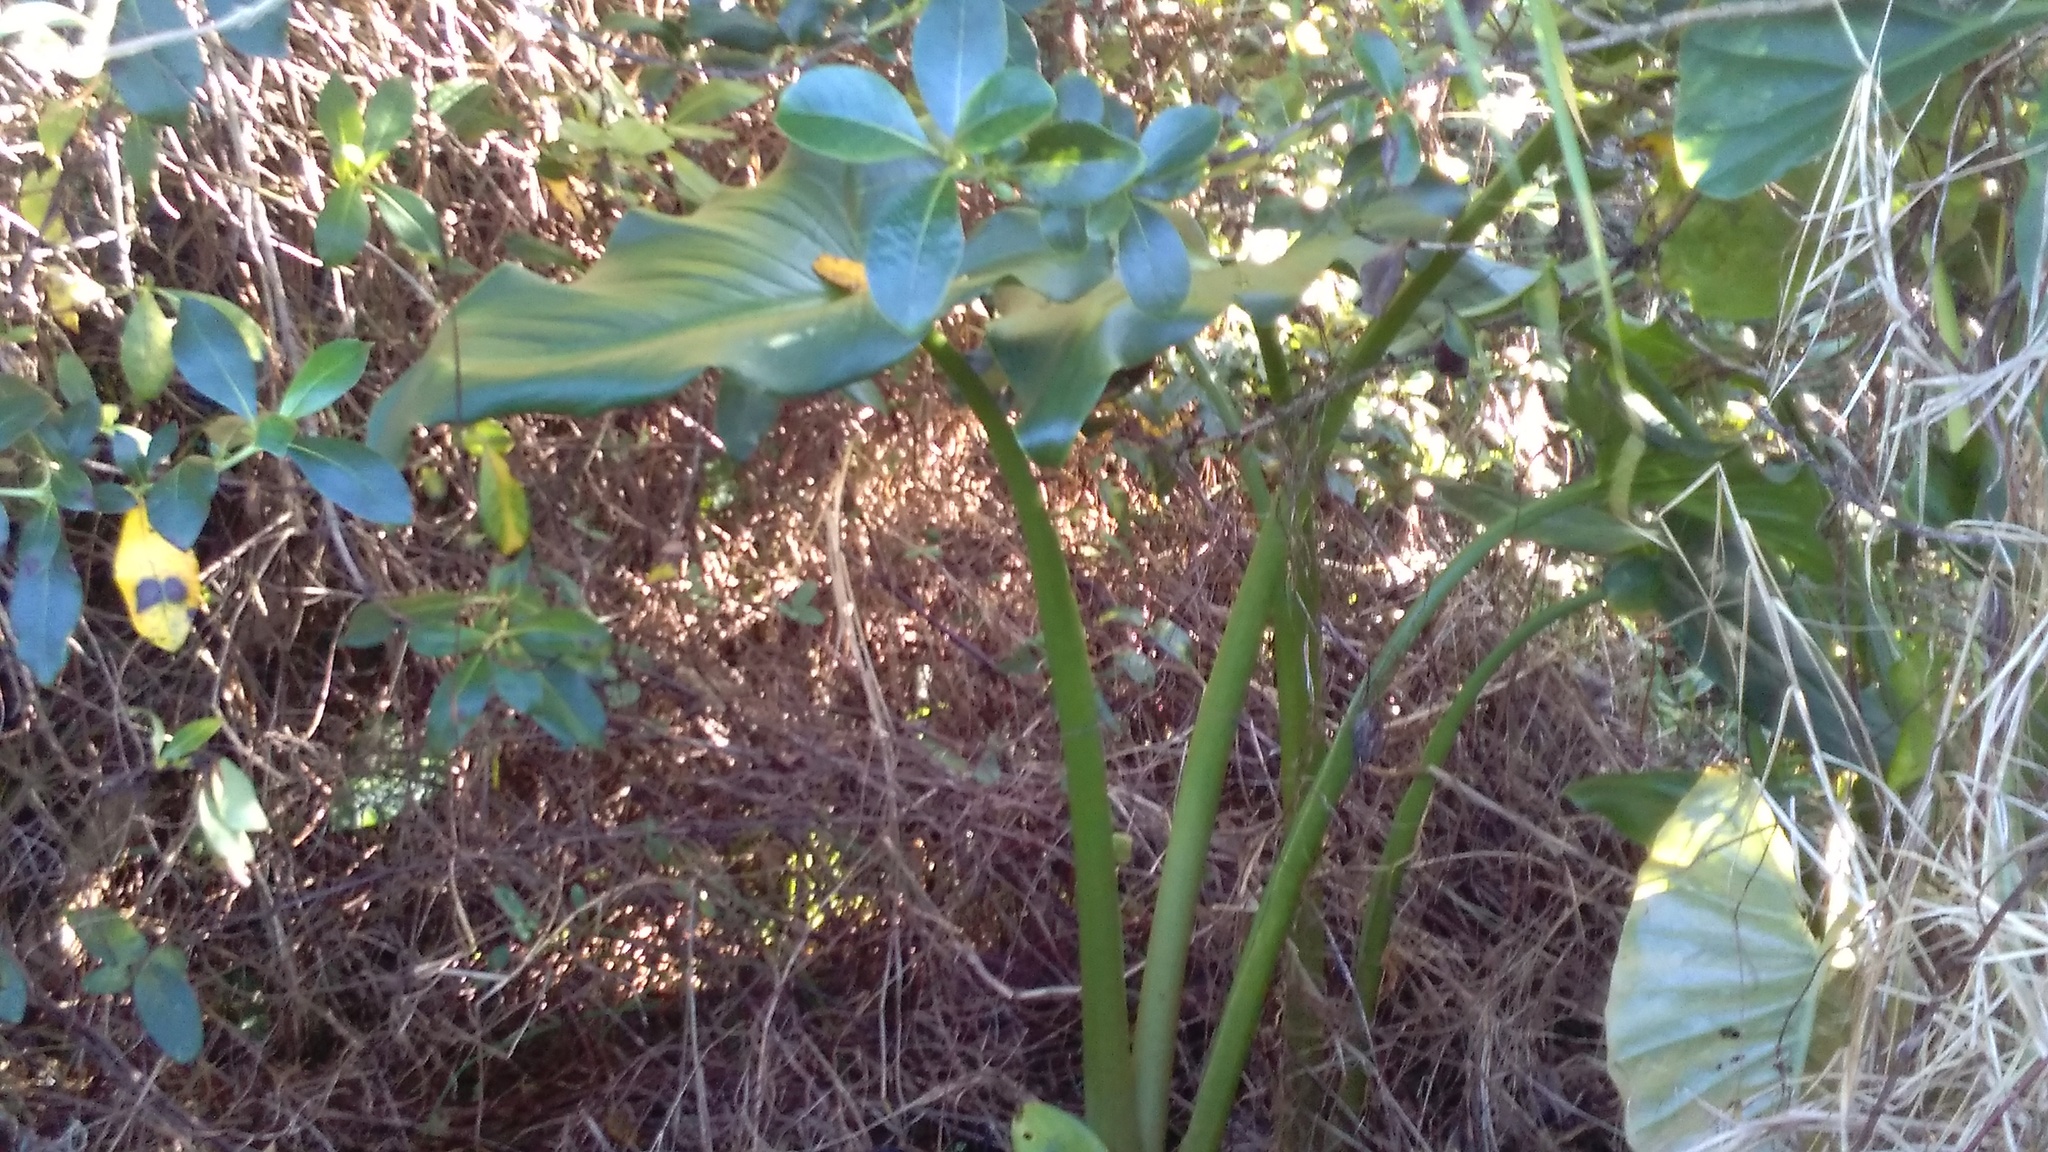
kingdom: Plantae
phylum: Tracheophyta
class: Liliopsida
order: Alismatales
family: Araceae
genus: Zantedeschia
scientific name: Zantedeschia aethiopica
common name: Altar-lily
